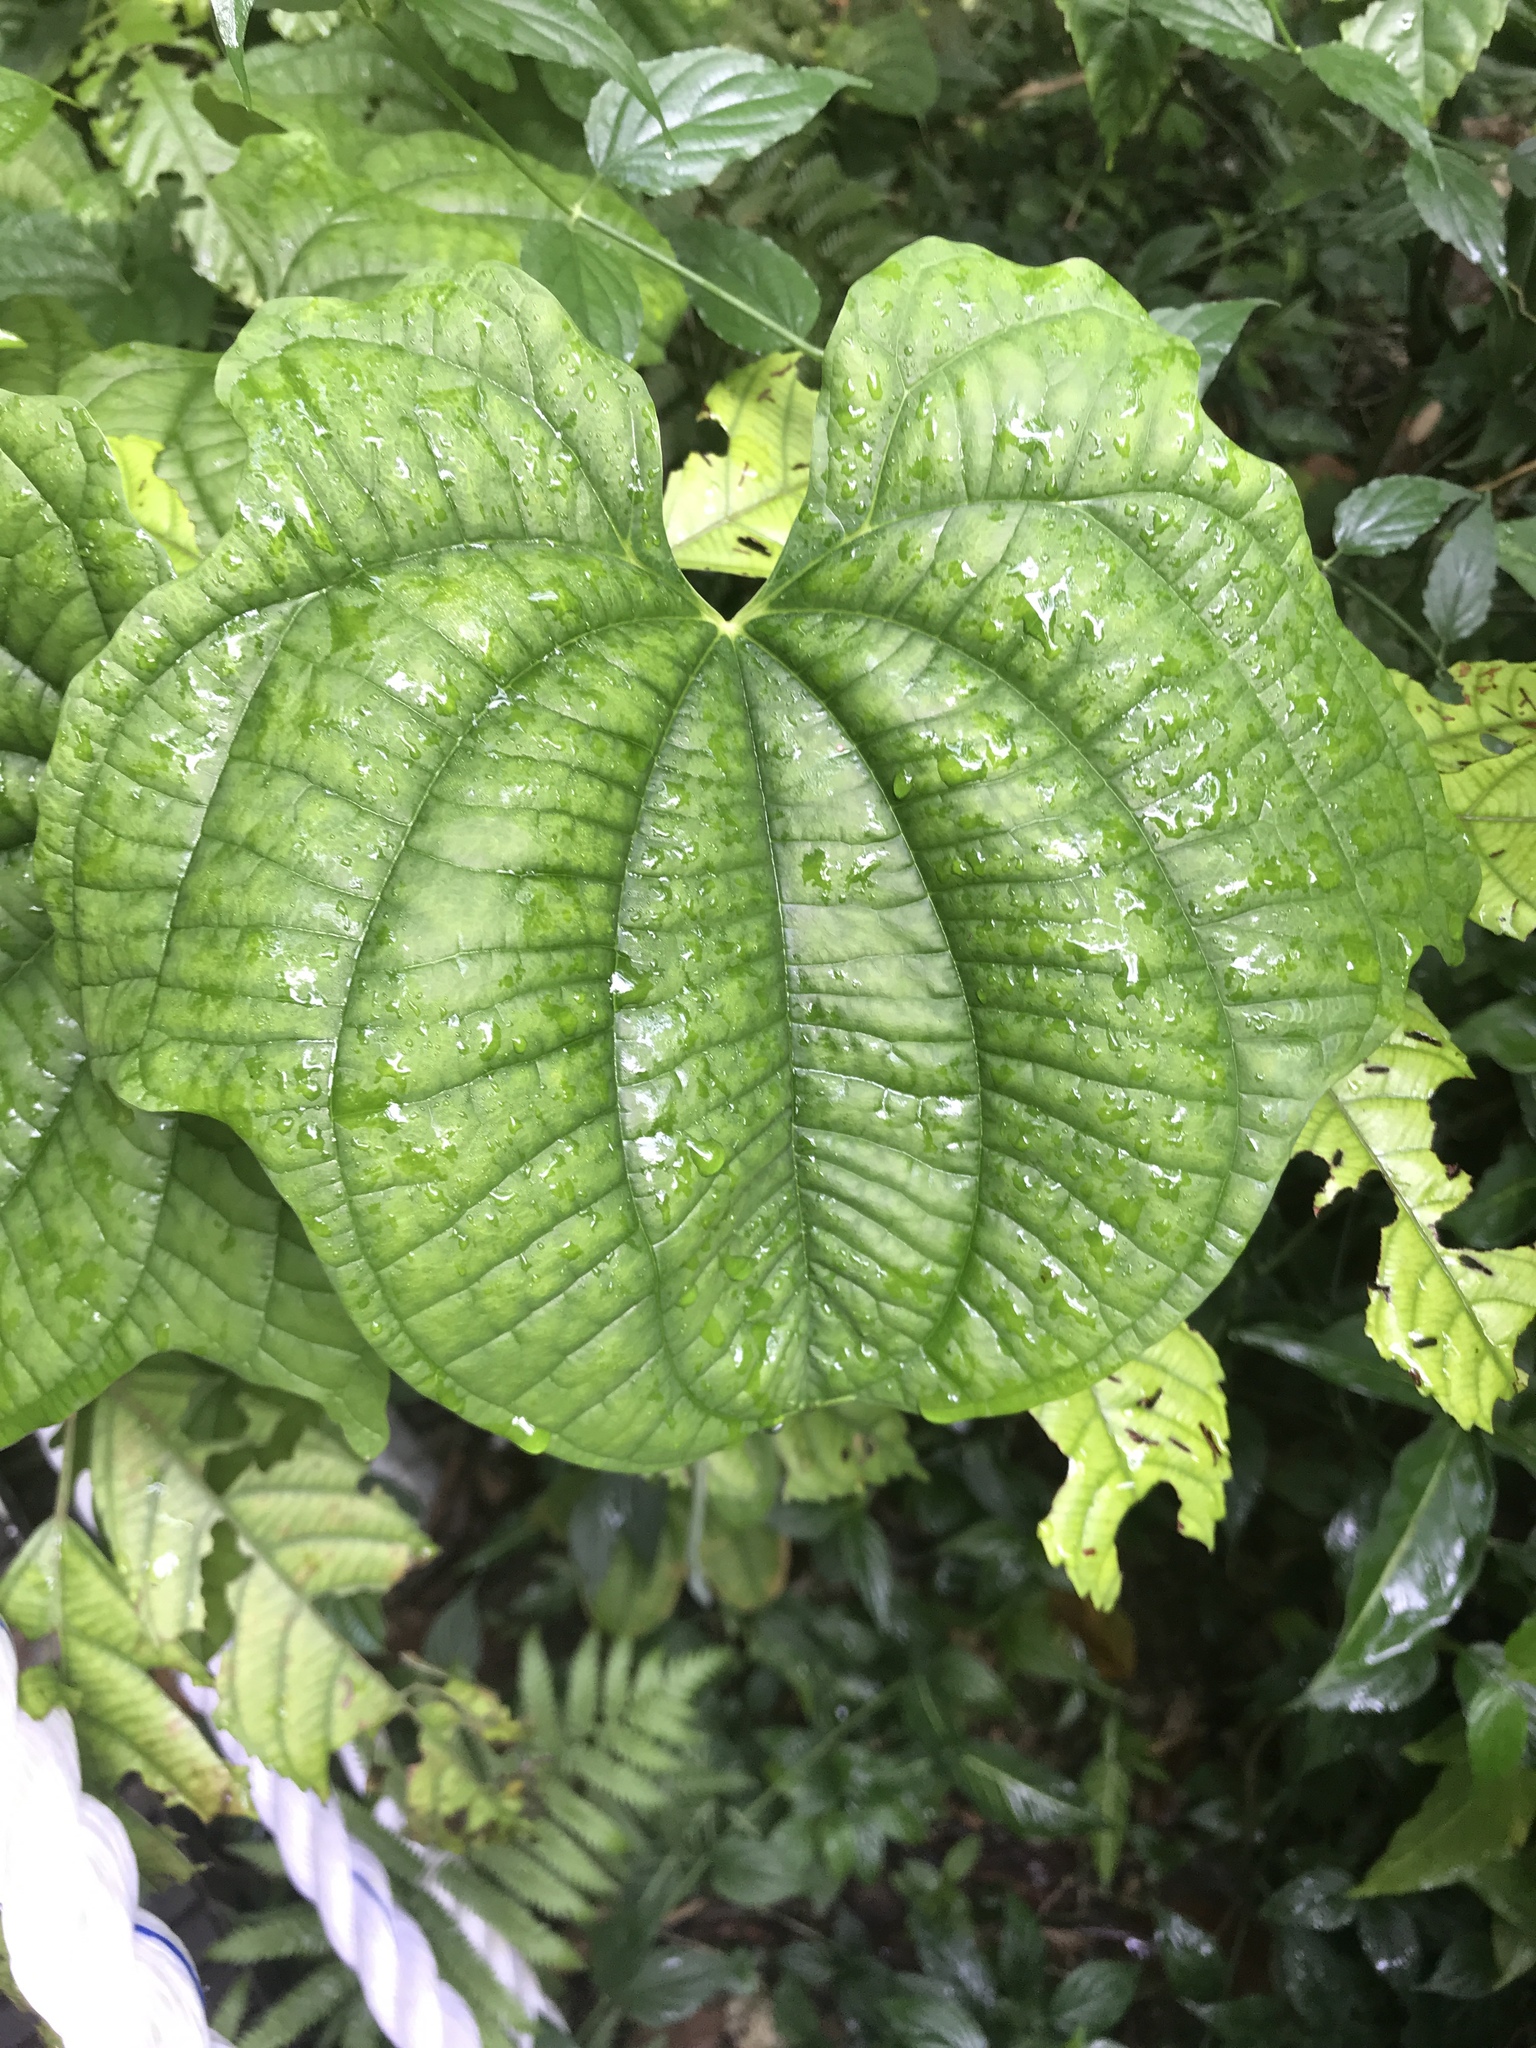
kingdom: Plantae
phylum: Tracheophyta
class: Liliopsida
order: Dioscoreales
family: Dioscoreaceae
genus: Dioscorea
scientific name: Dioscorea sansibarensis
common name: Zanzibar yam
